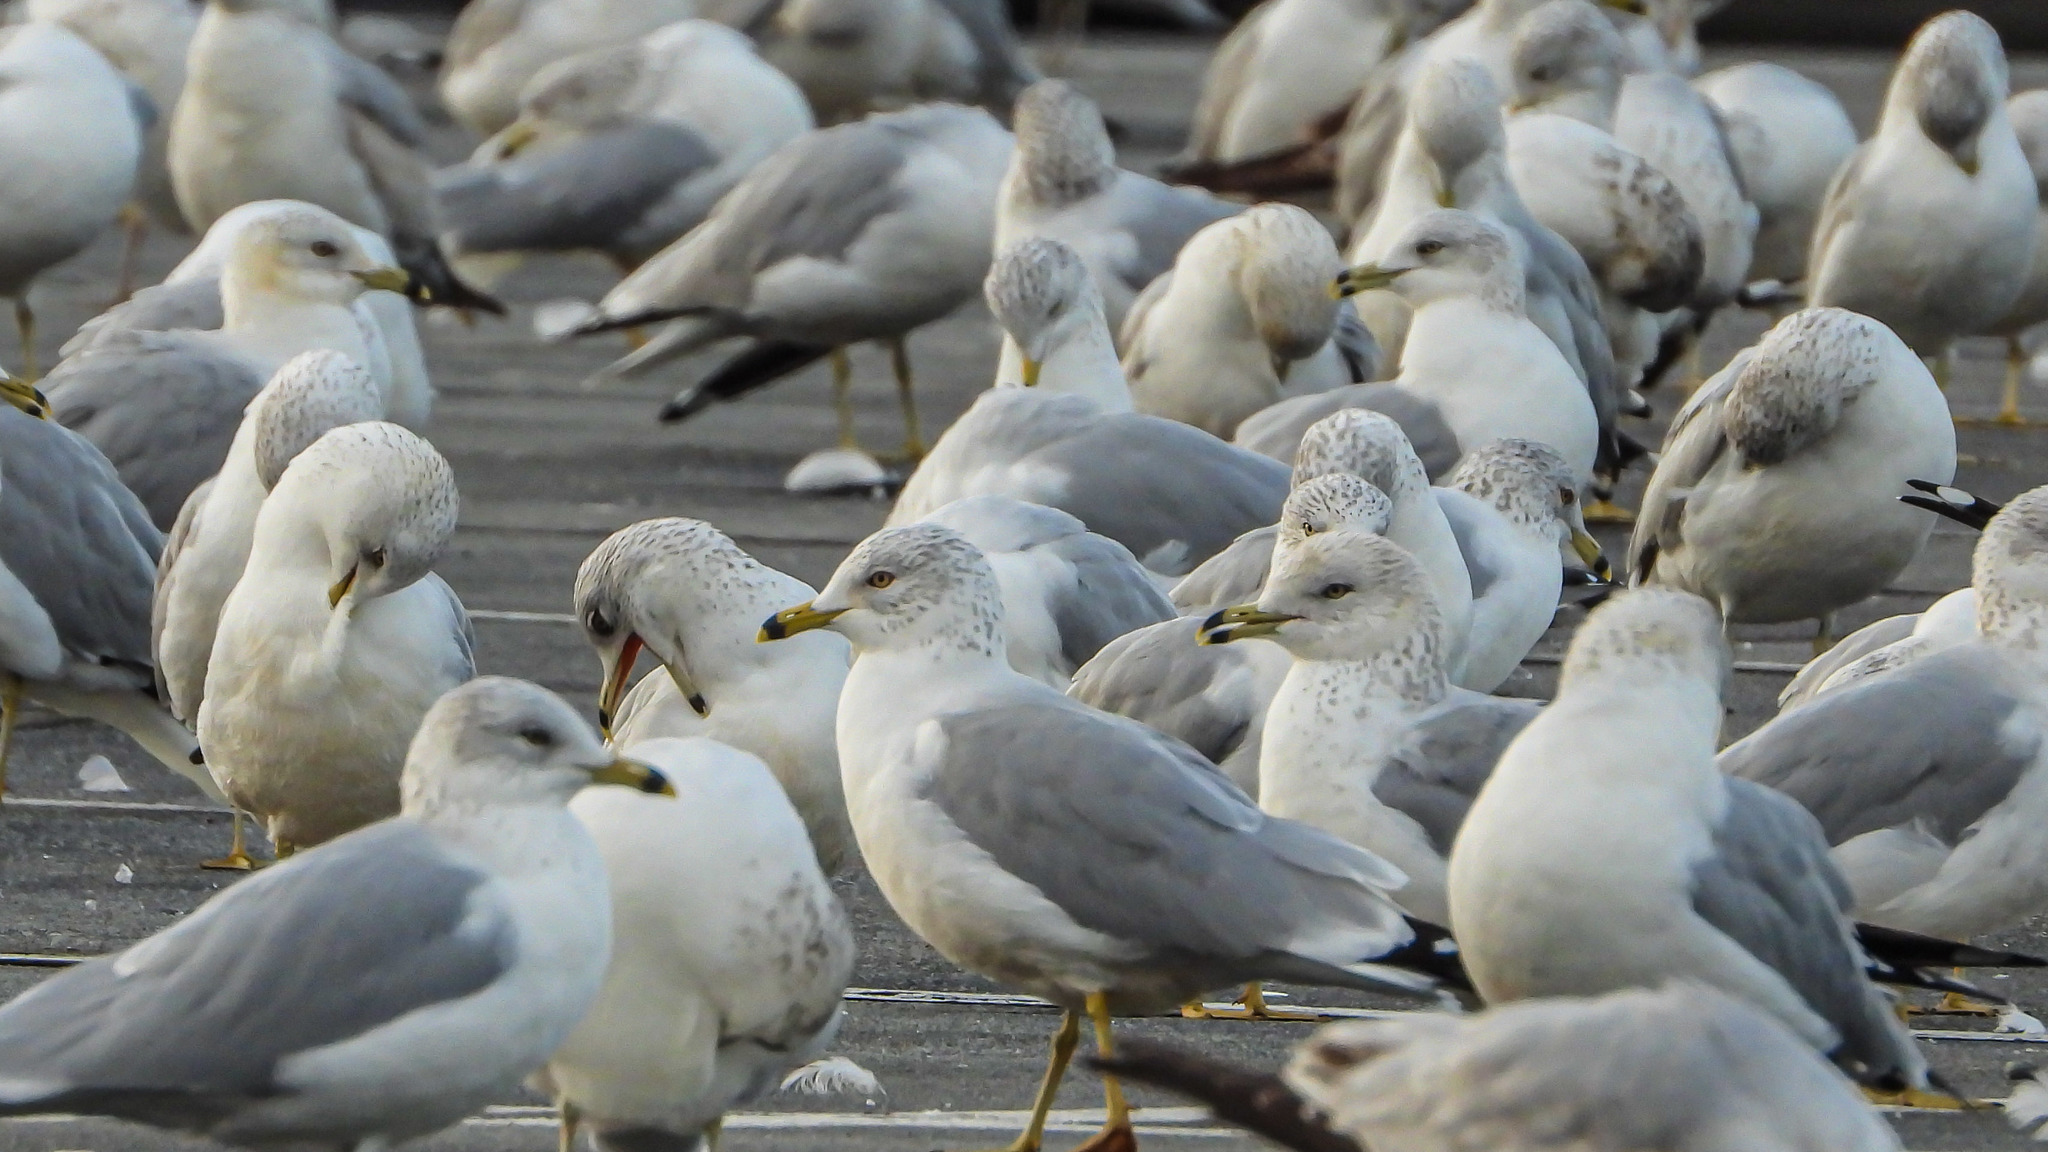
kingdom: Animalia
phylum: Chordata
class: Aves
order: Charadriiformes
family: Laridae
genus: Larus
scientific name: Larus delawarensis
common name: Ring-billed gull
